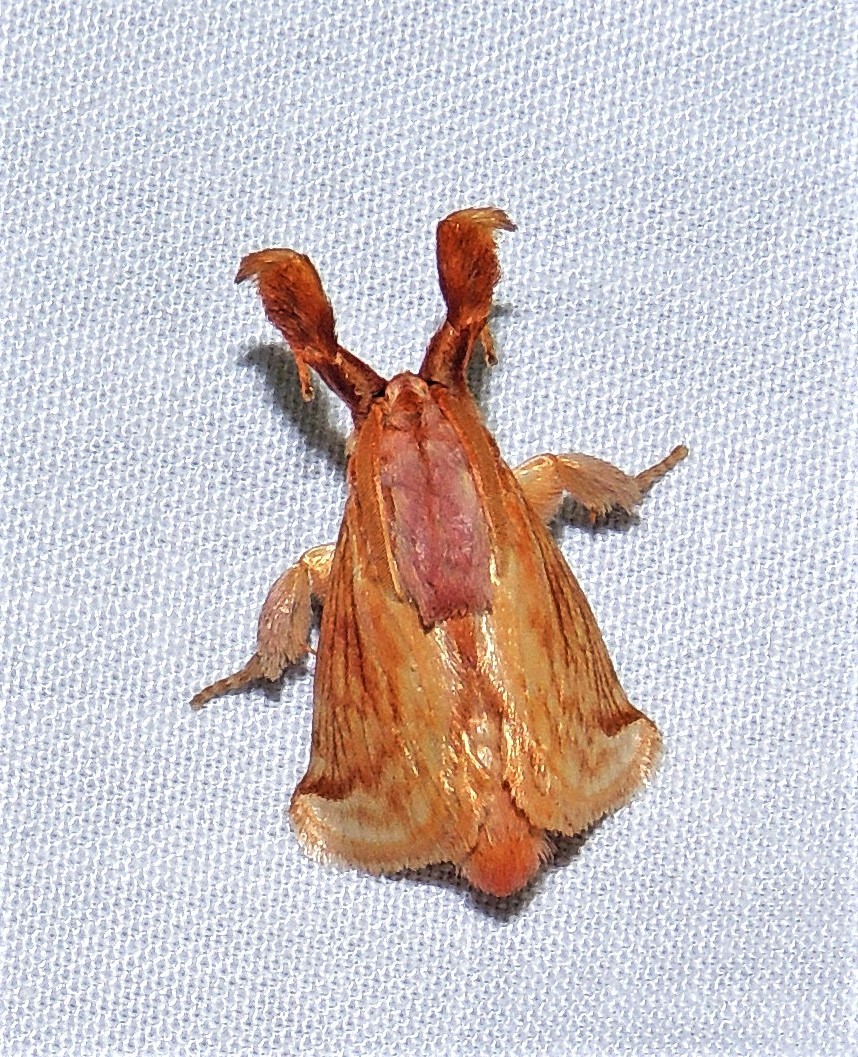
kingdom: Animalia
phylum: Arthropoda
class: Insecta
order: Lepidoptera
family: Limacodidae
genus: Perola
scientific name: Perola villosipes
